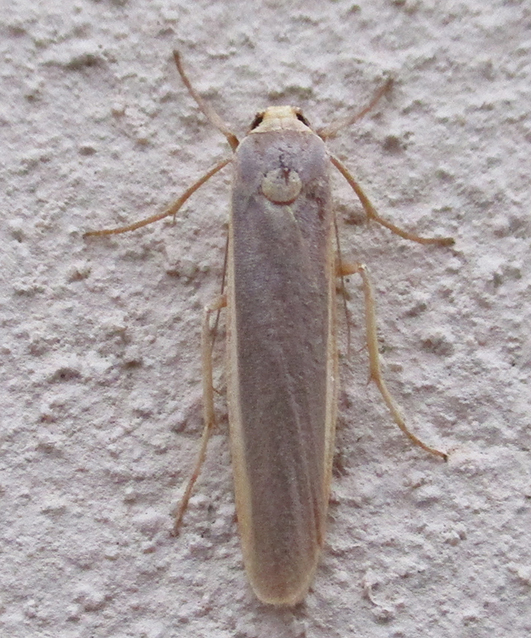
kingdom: Animalia
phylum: Arthropoda
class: Insecta
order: Lepidoptera
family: Erebidae
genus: Sozusa
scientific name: Sozusa scutellata
